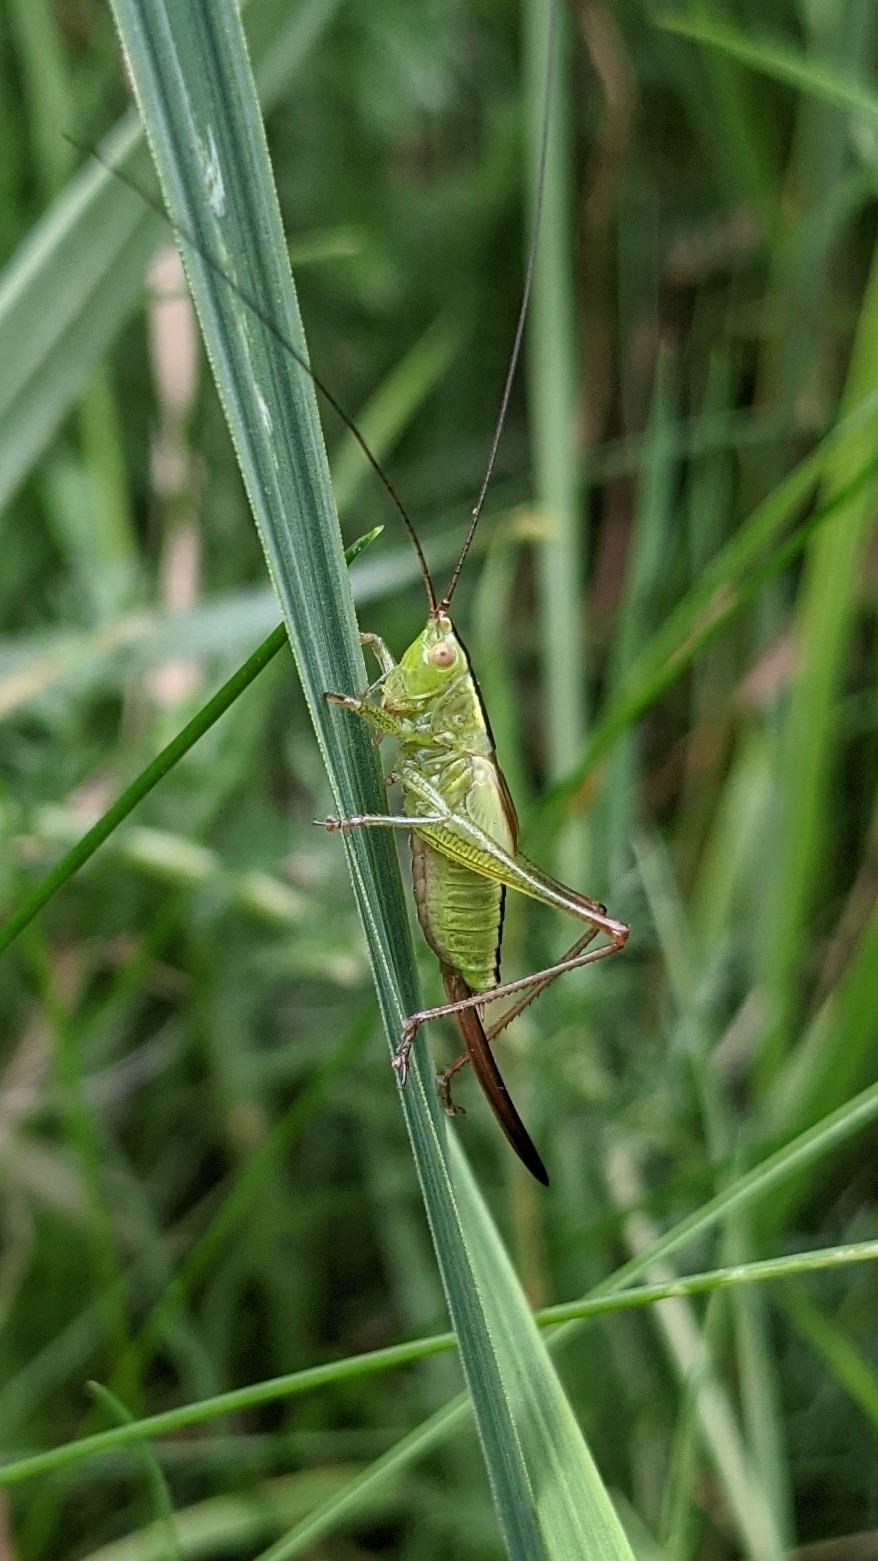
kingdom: Animalia
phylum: Arthropoda
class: Insecta
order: Orthoptera
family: Tettigoniidae
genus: Conocephalus
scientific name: Conocephalus fuscus
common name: Long-winged conehead
